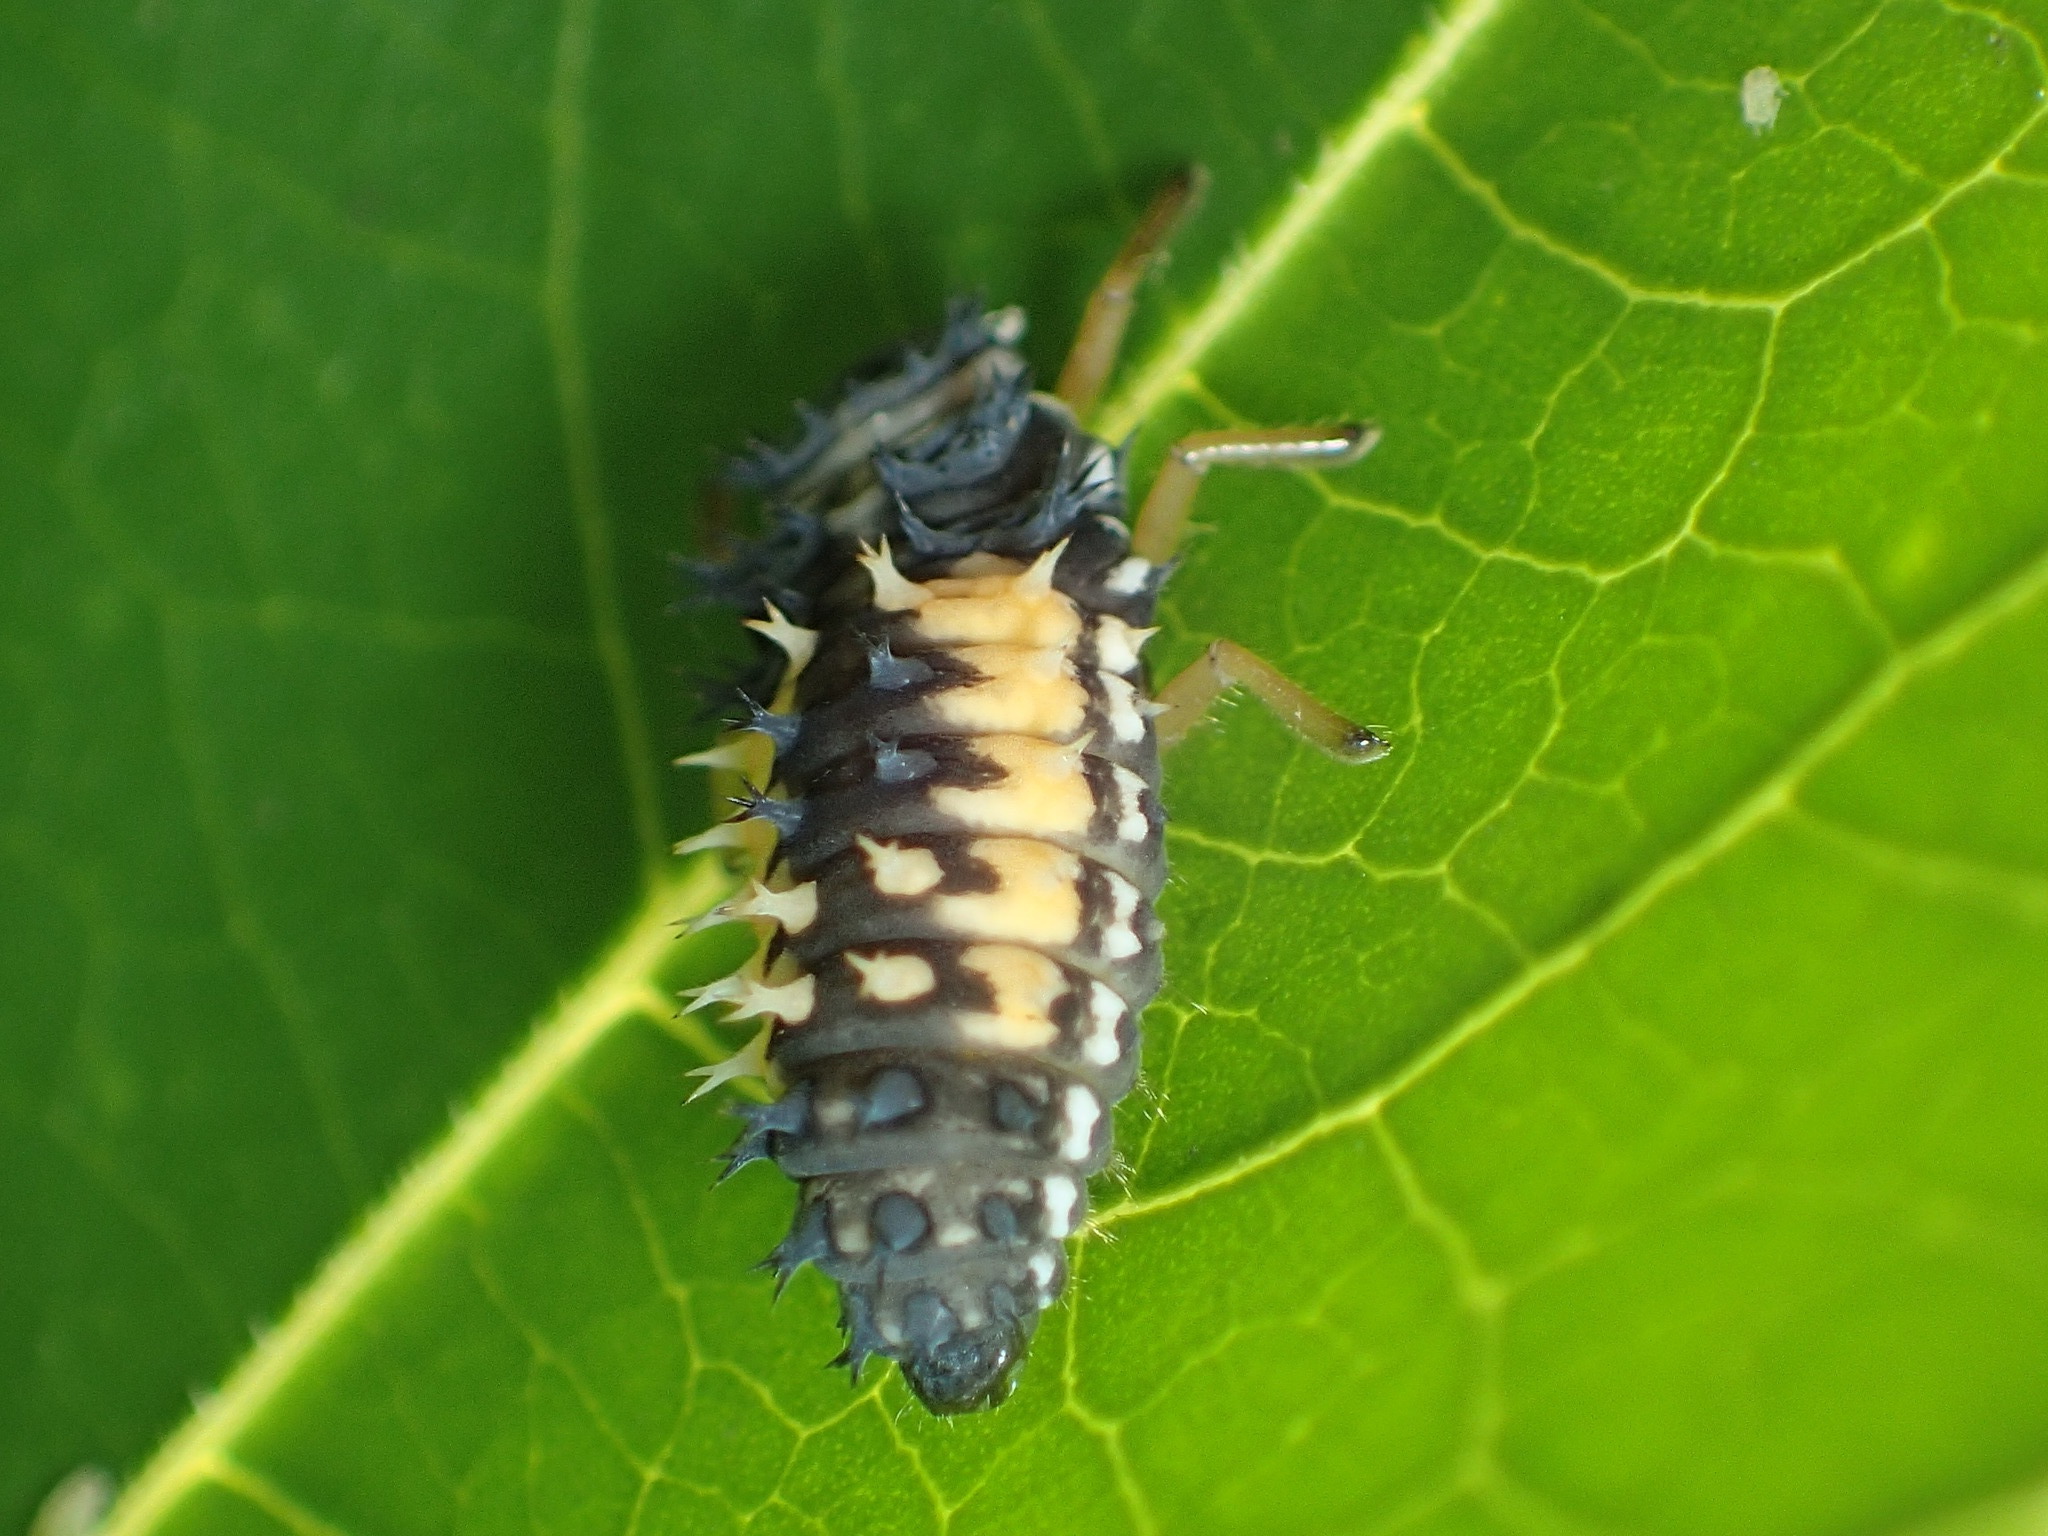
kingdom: Animalia
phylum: Arthropoda
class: Insecta
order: Coleoptera
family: Coccinellidae
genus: Harmonia
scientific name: Harmonia axyridis
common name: Harlequin ladybird
